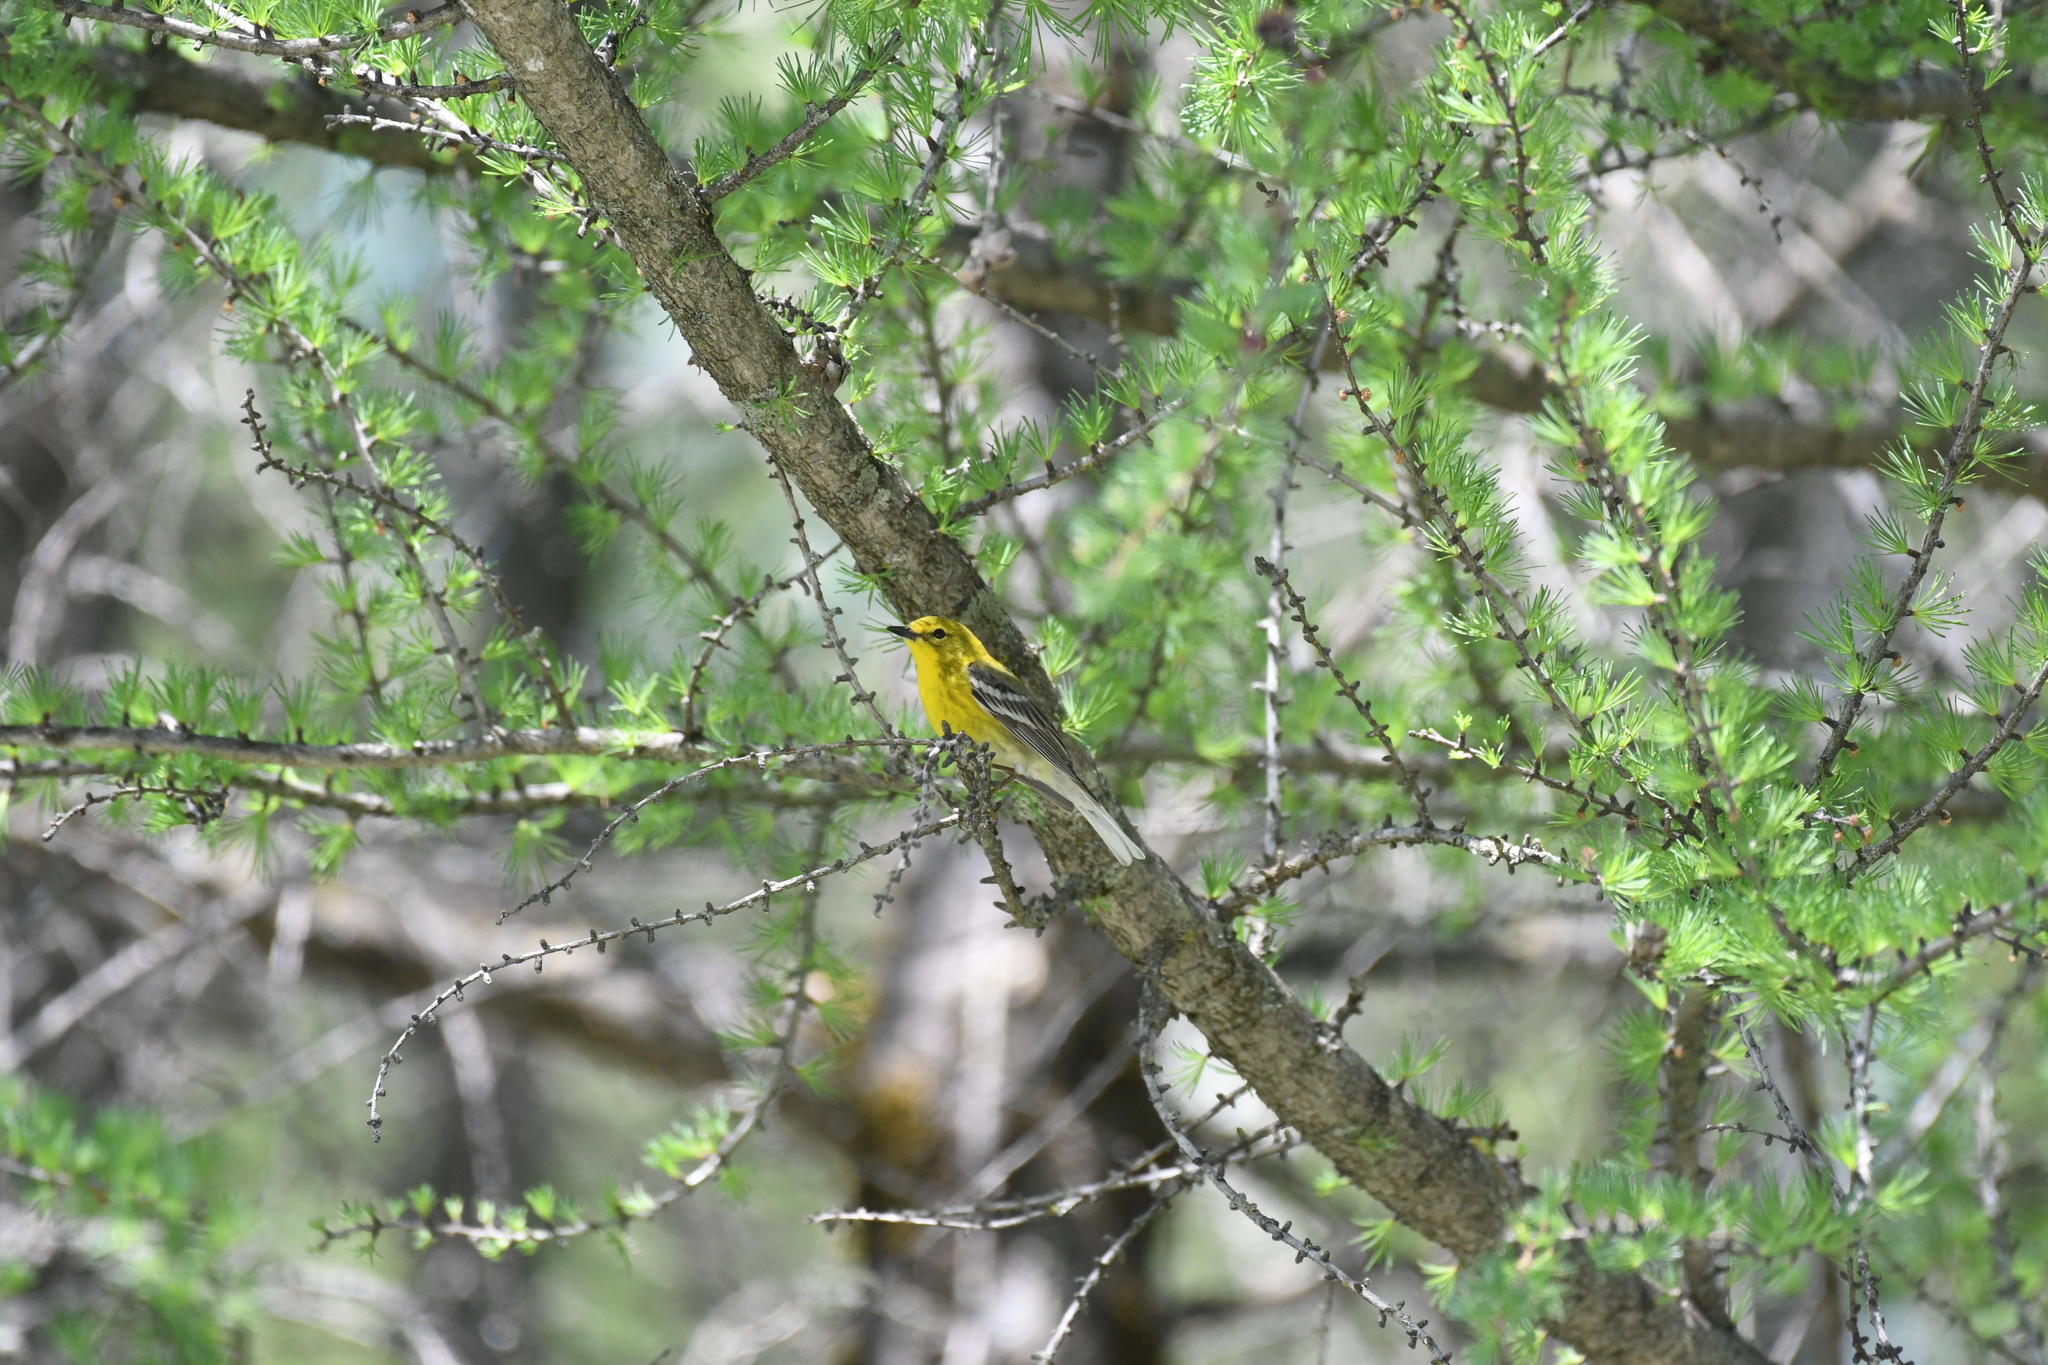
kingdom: Animalia
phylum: Chordata
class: Aves
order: Passeriformes
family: Parulidae
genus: Setophaga
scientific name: Setophaga pinus
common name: Pine warbler
